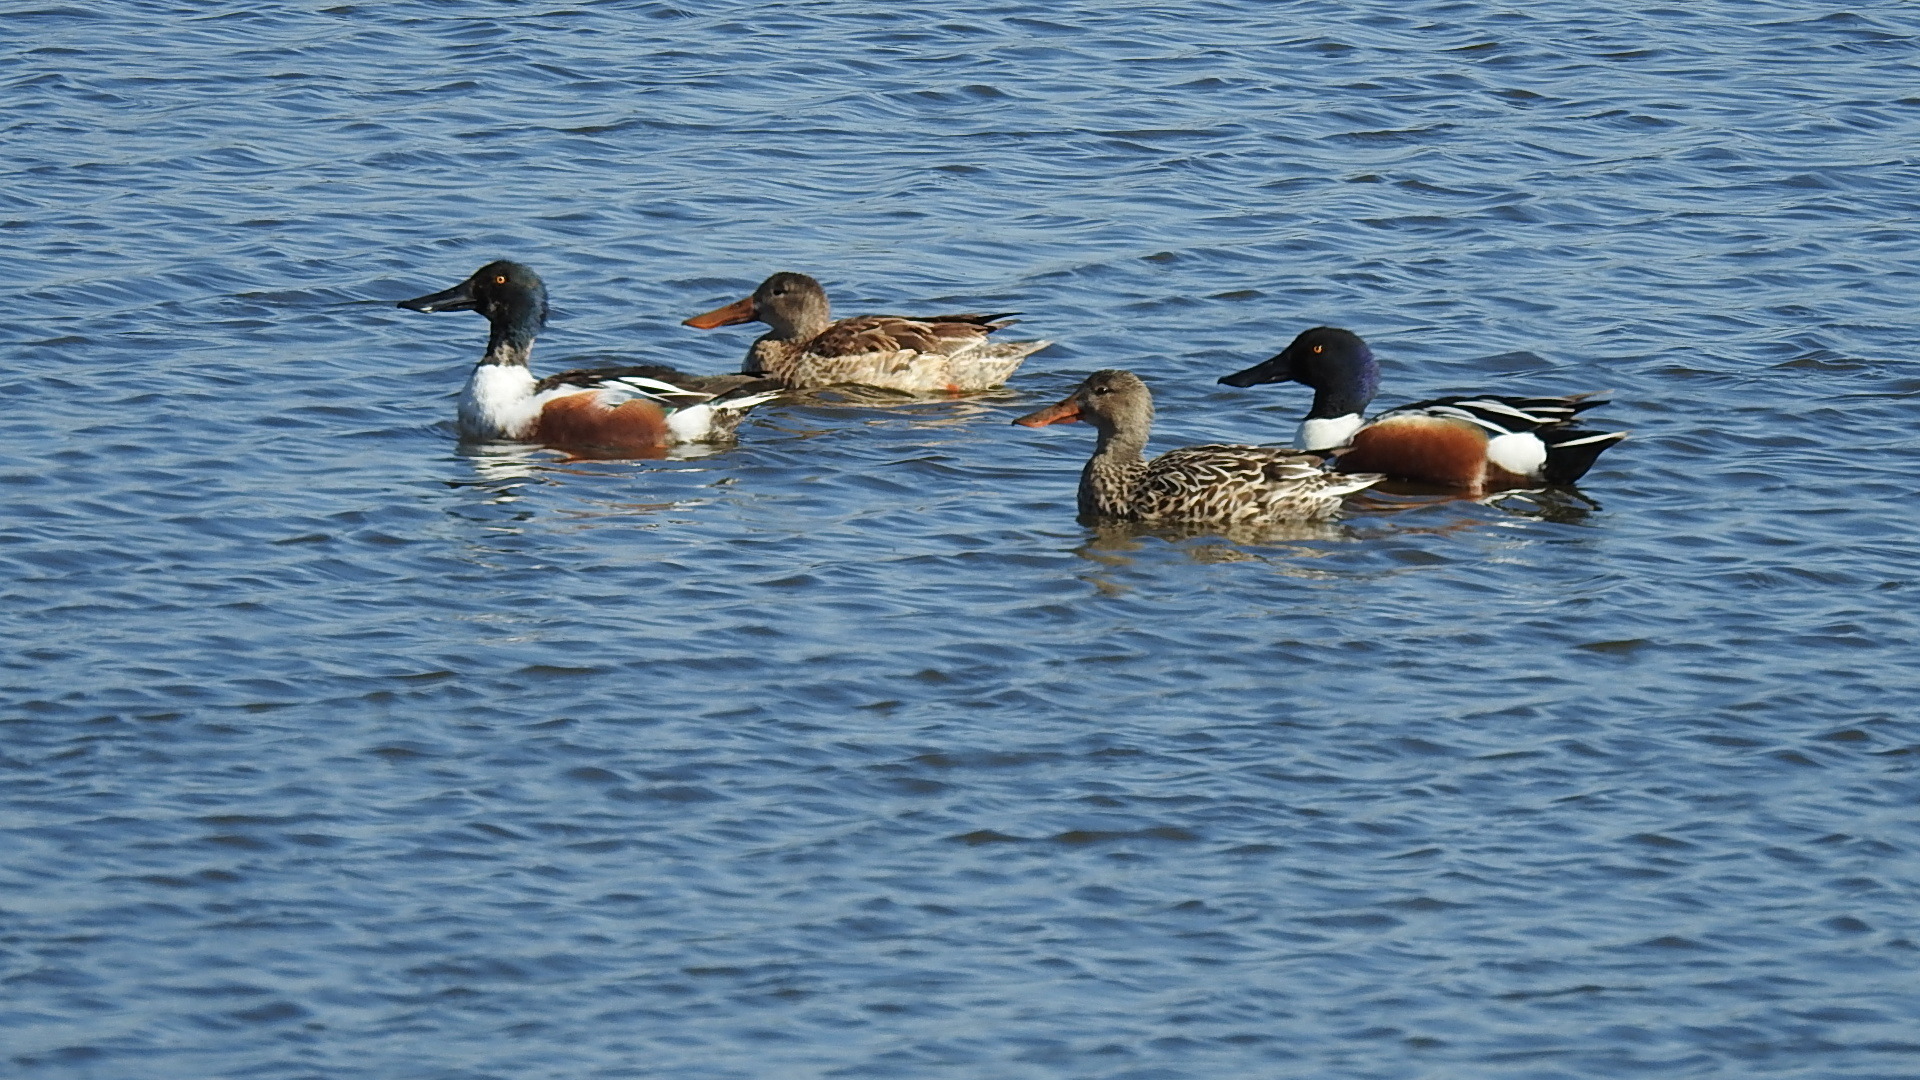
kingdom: Animalia
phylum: Chordata
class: Aves
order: Anseriformes
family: Anatidae
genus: Spatula
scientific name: Spatula clypeata
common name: Northern shoveler
